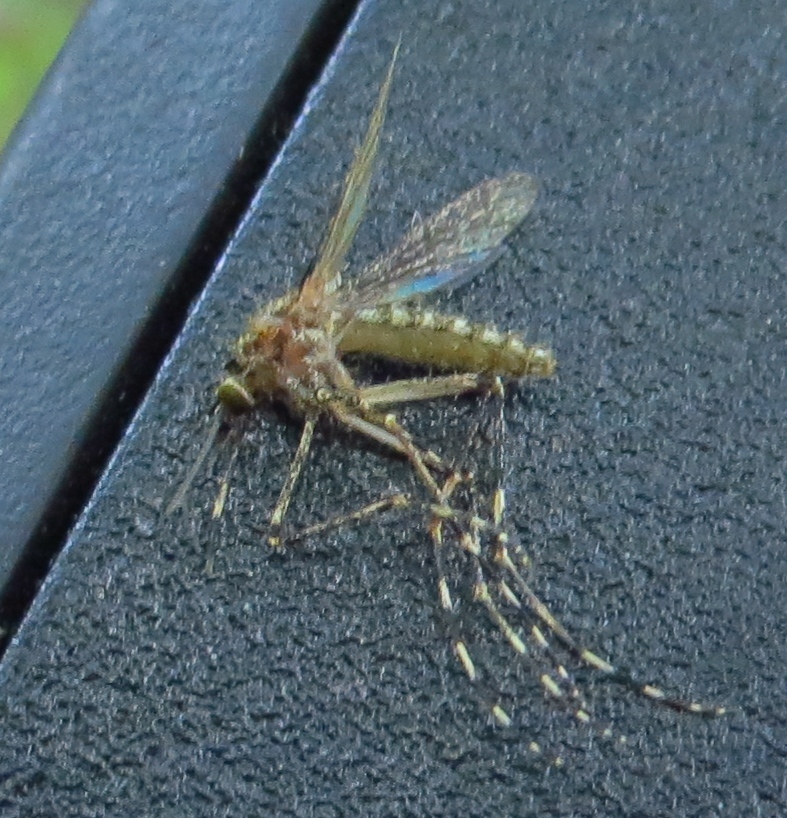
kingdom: Animalia
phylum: Arthropoda
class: Insecta
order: Diptera
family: Culicidae
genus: Coquillettidia
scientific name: Coquillettidia perturbans
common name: Cattail mosquito
